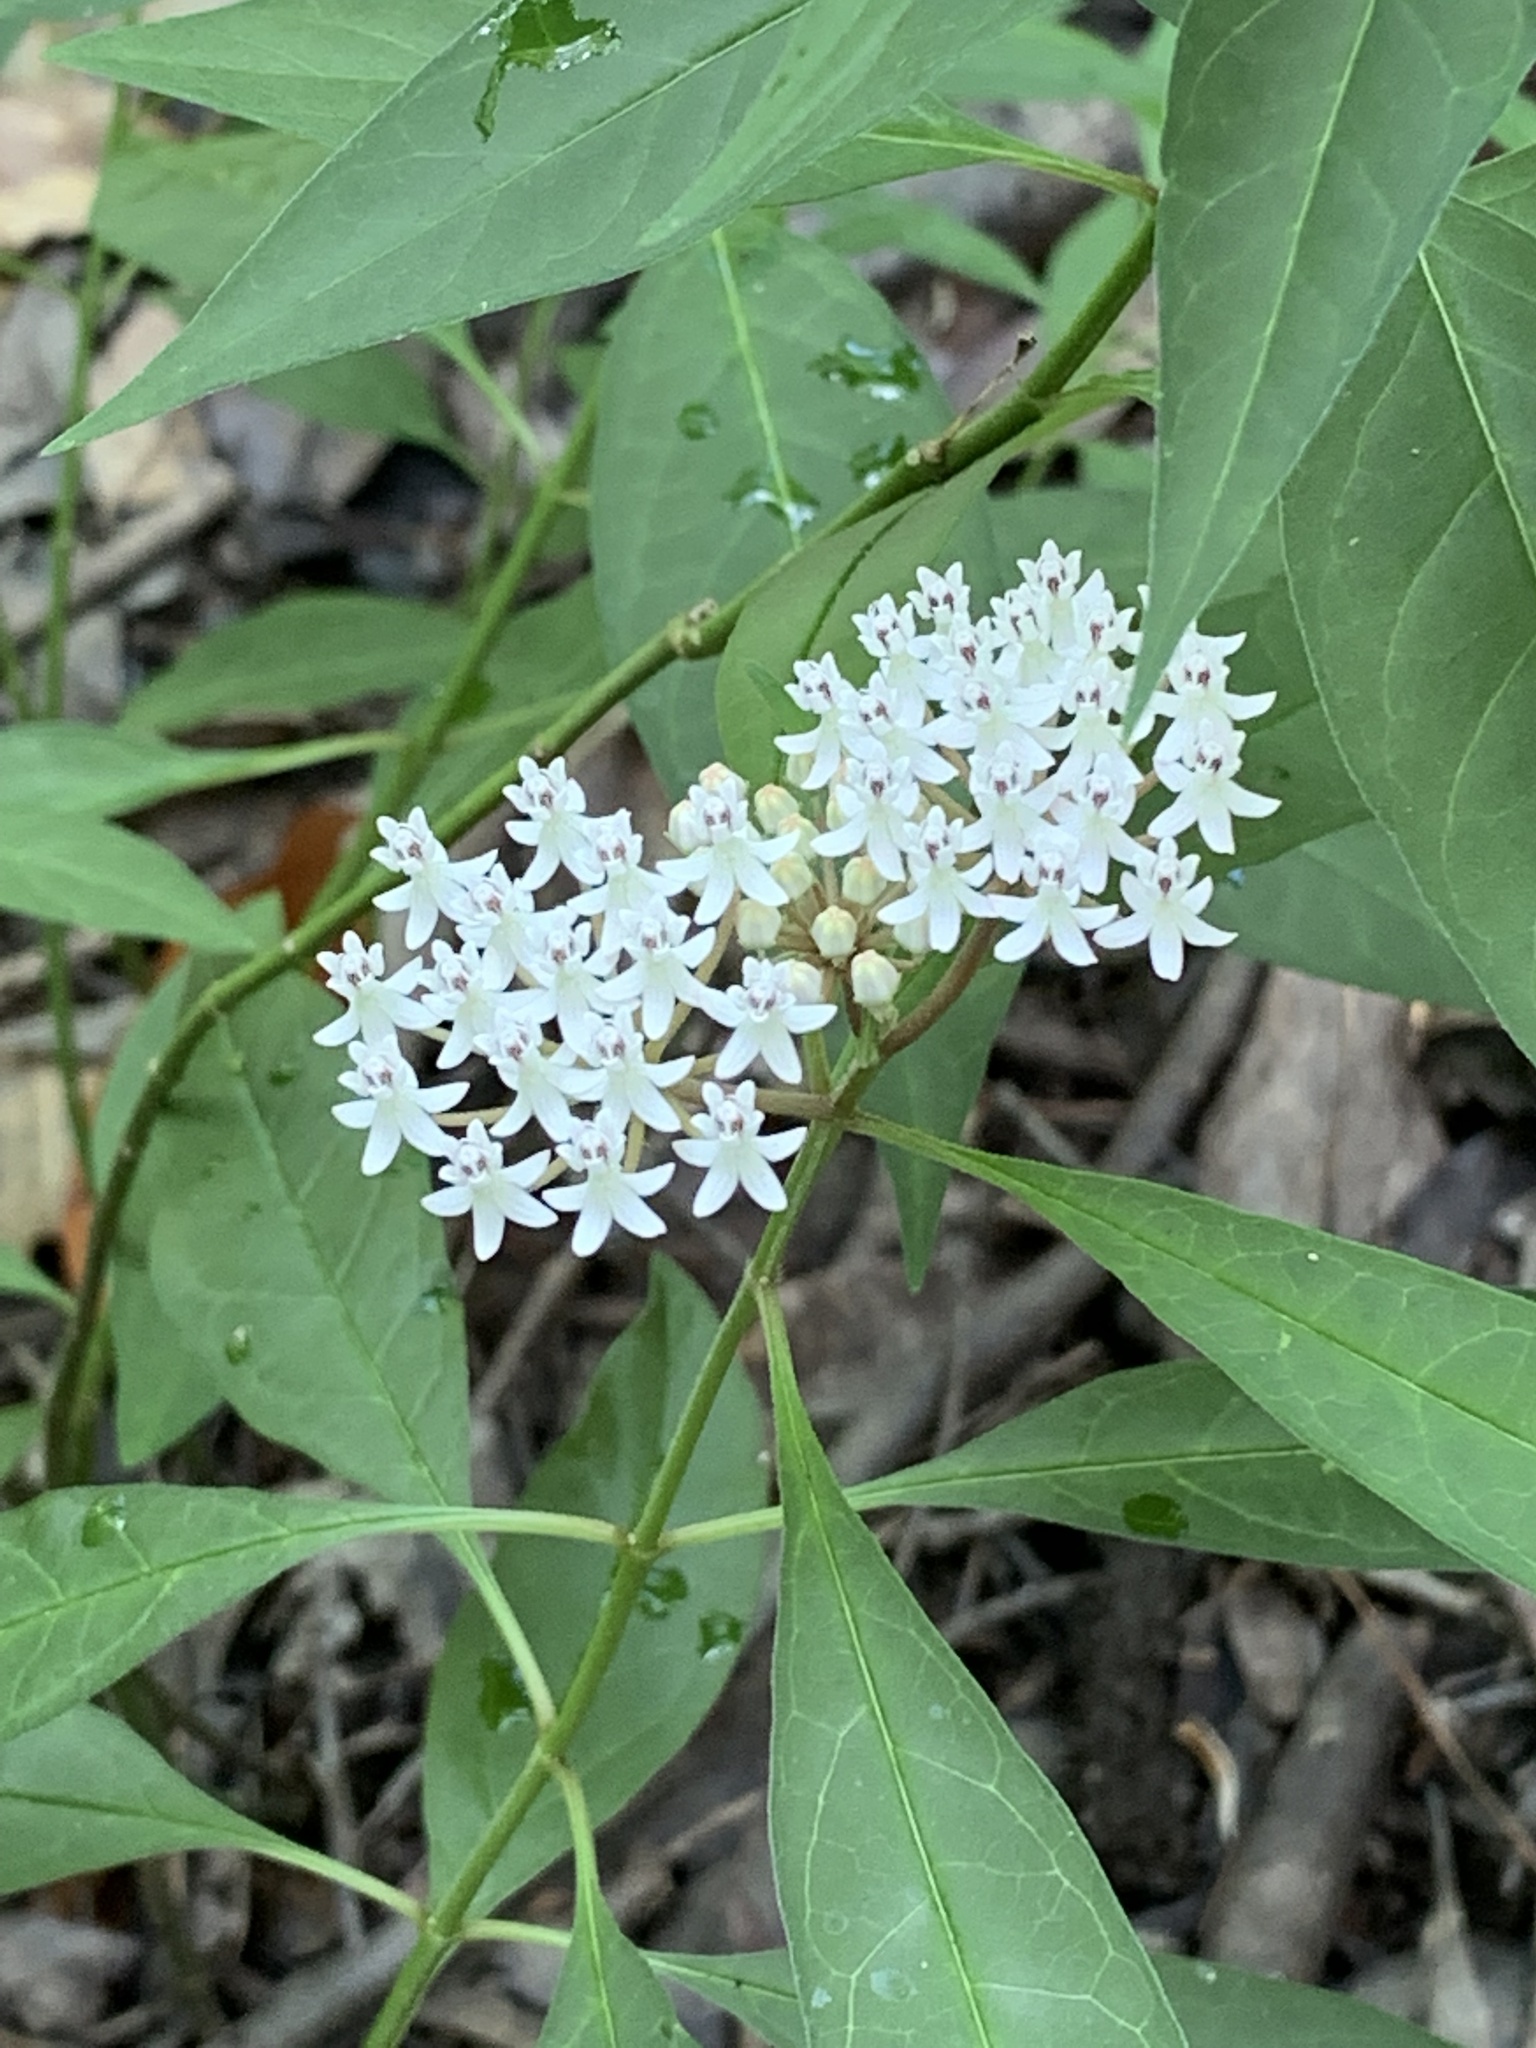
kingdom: Plantae
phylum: Tracheophyta
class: Magnoliopsida
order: Gentianales
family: Apocynaceae
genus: Asclepias
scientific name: Asclepias perennis
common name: Smooth-seed milkweed
